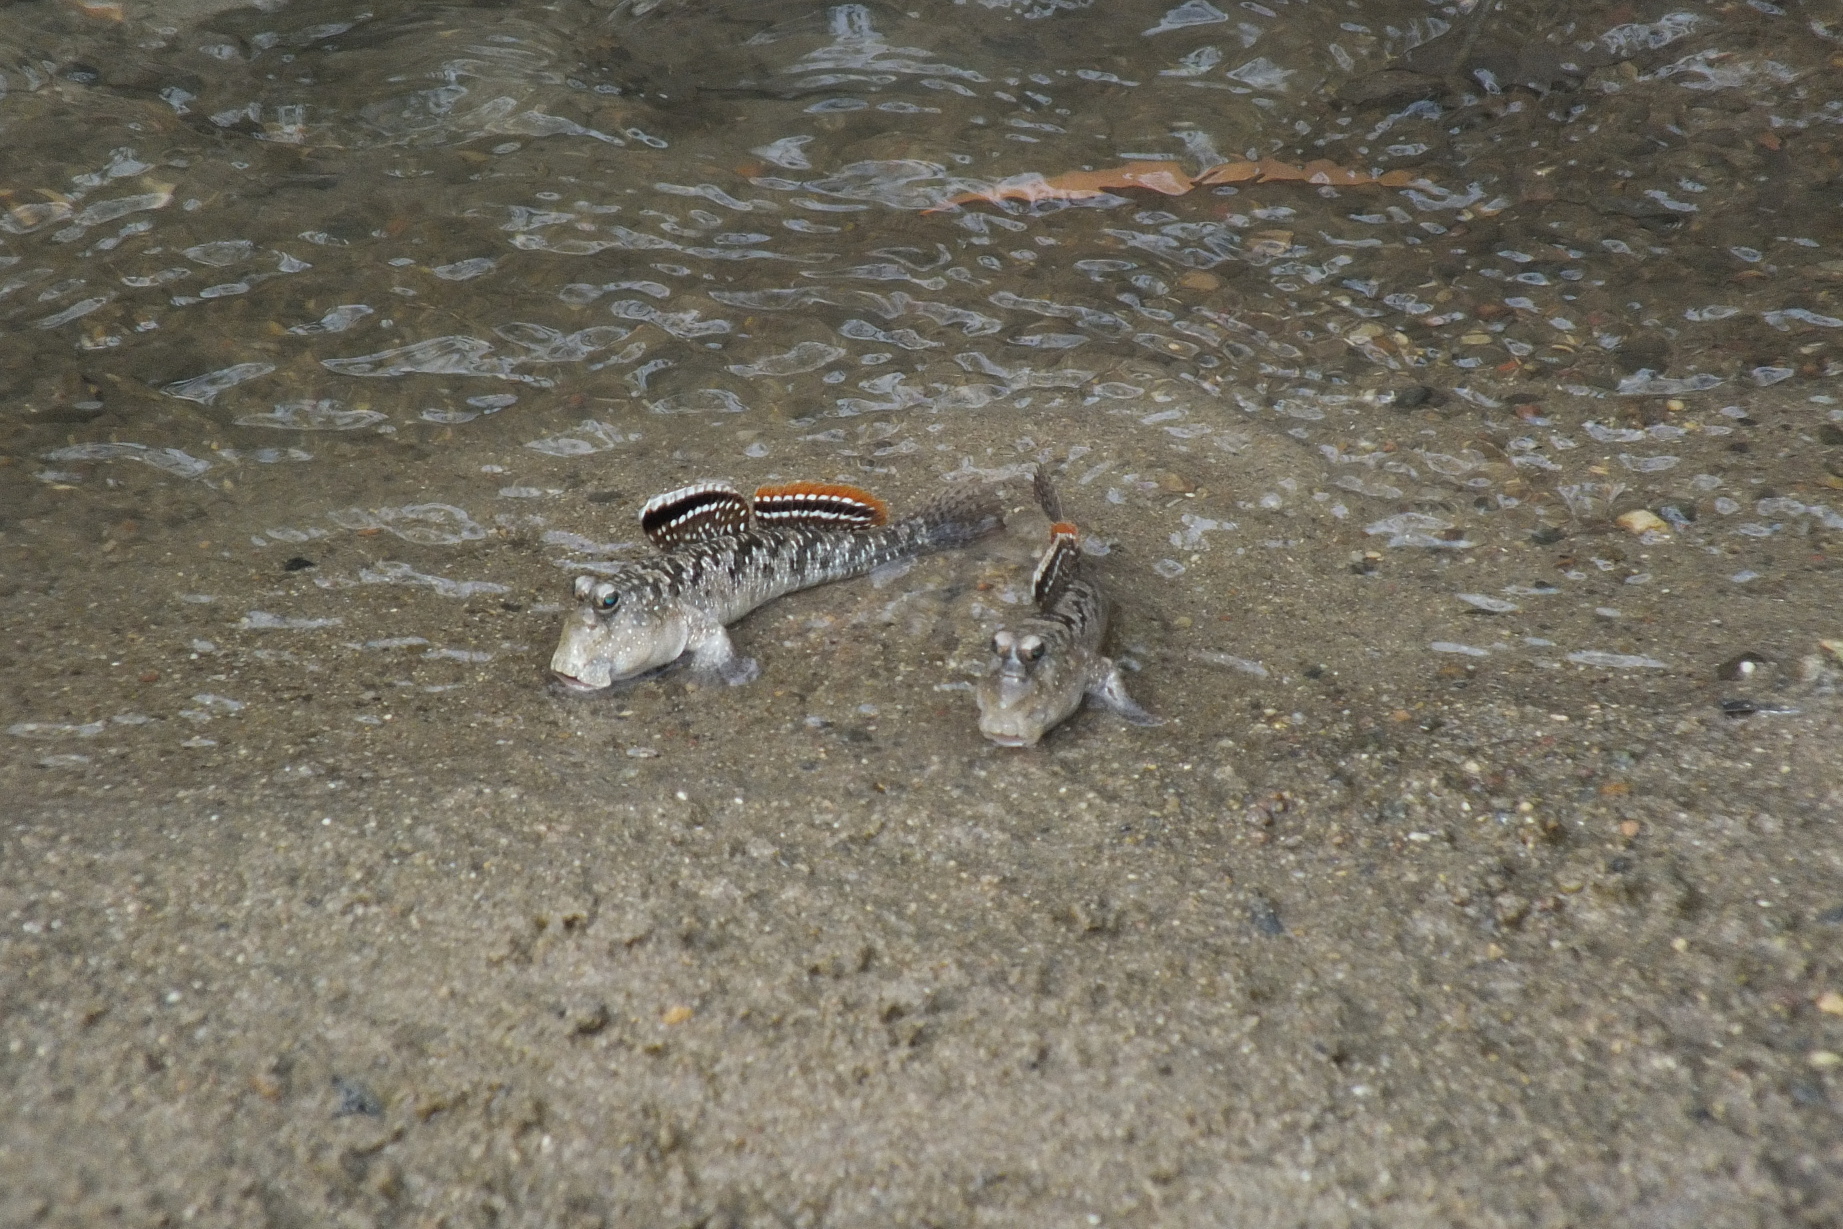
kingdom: Animalia
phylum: Chordata
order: Perciformes
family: Gobiidae
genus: Periophthalmus
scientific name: Periophthalmus argentilineatus
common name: Barred mudskipper
